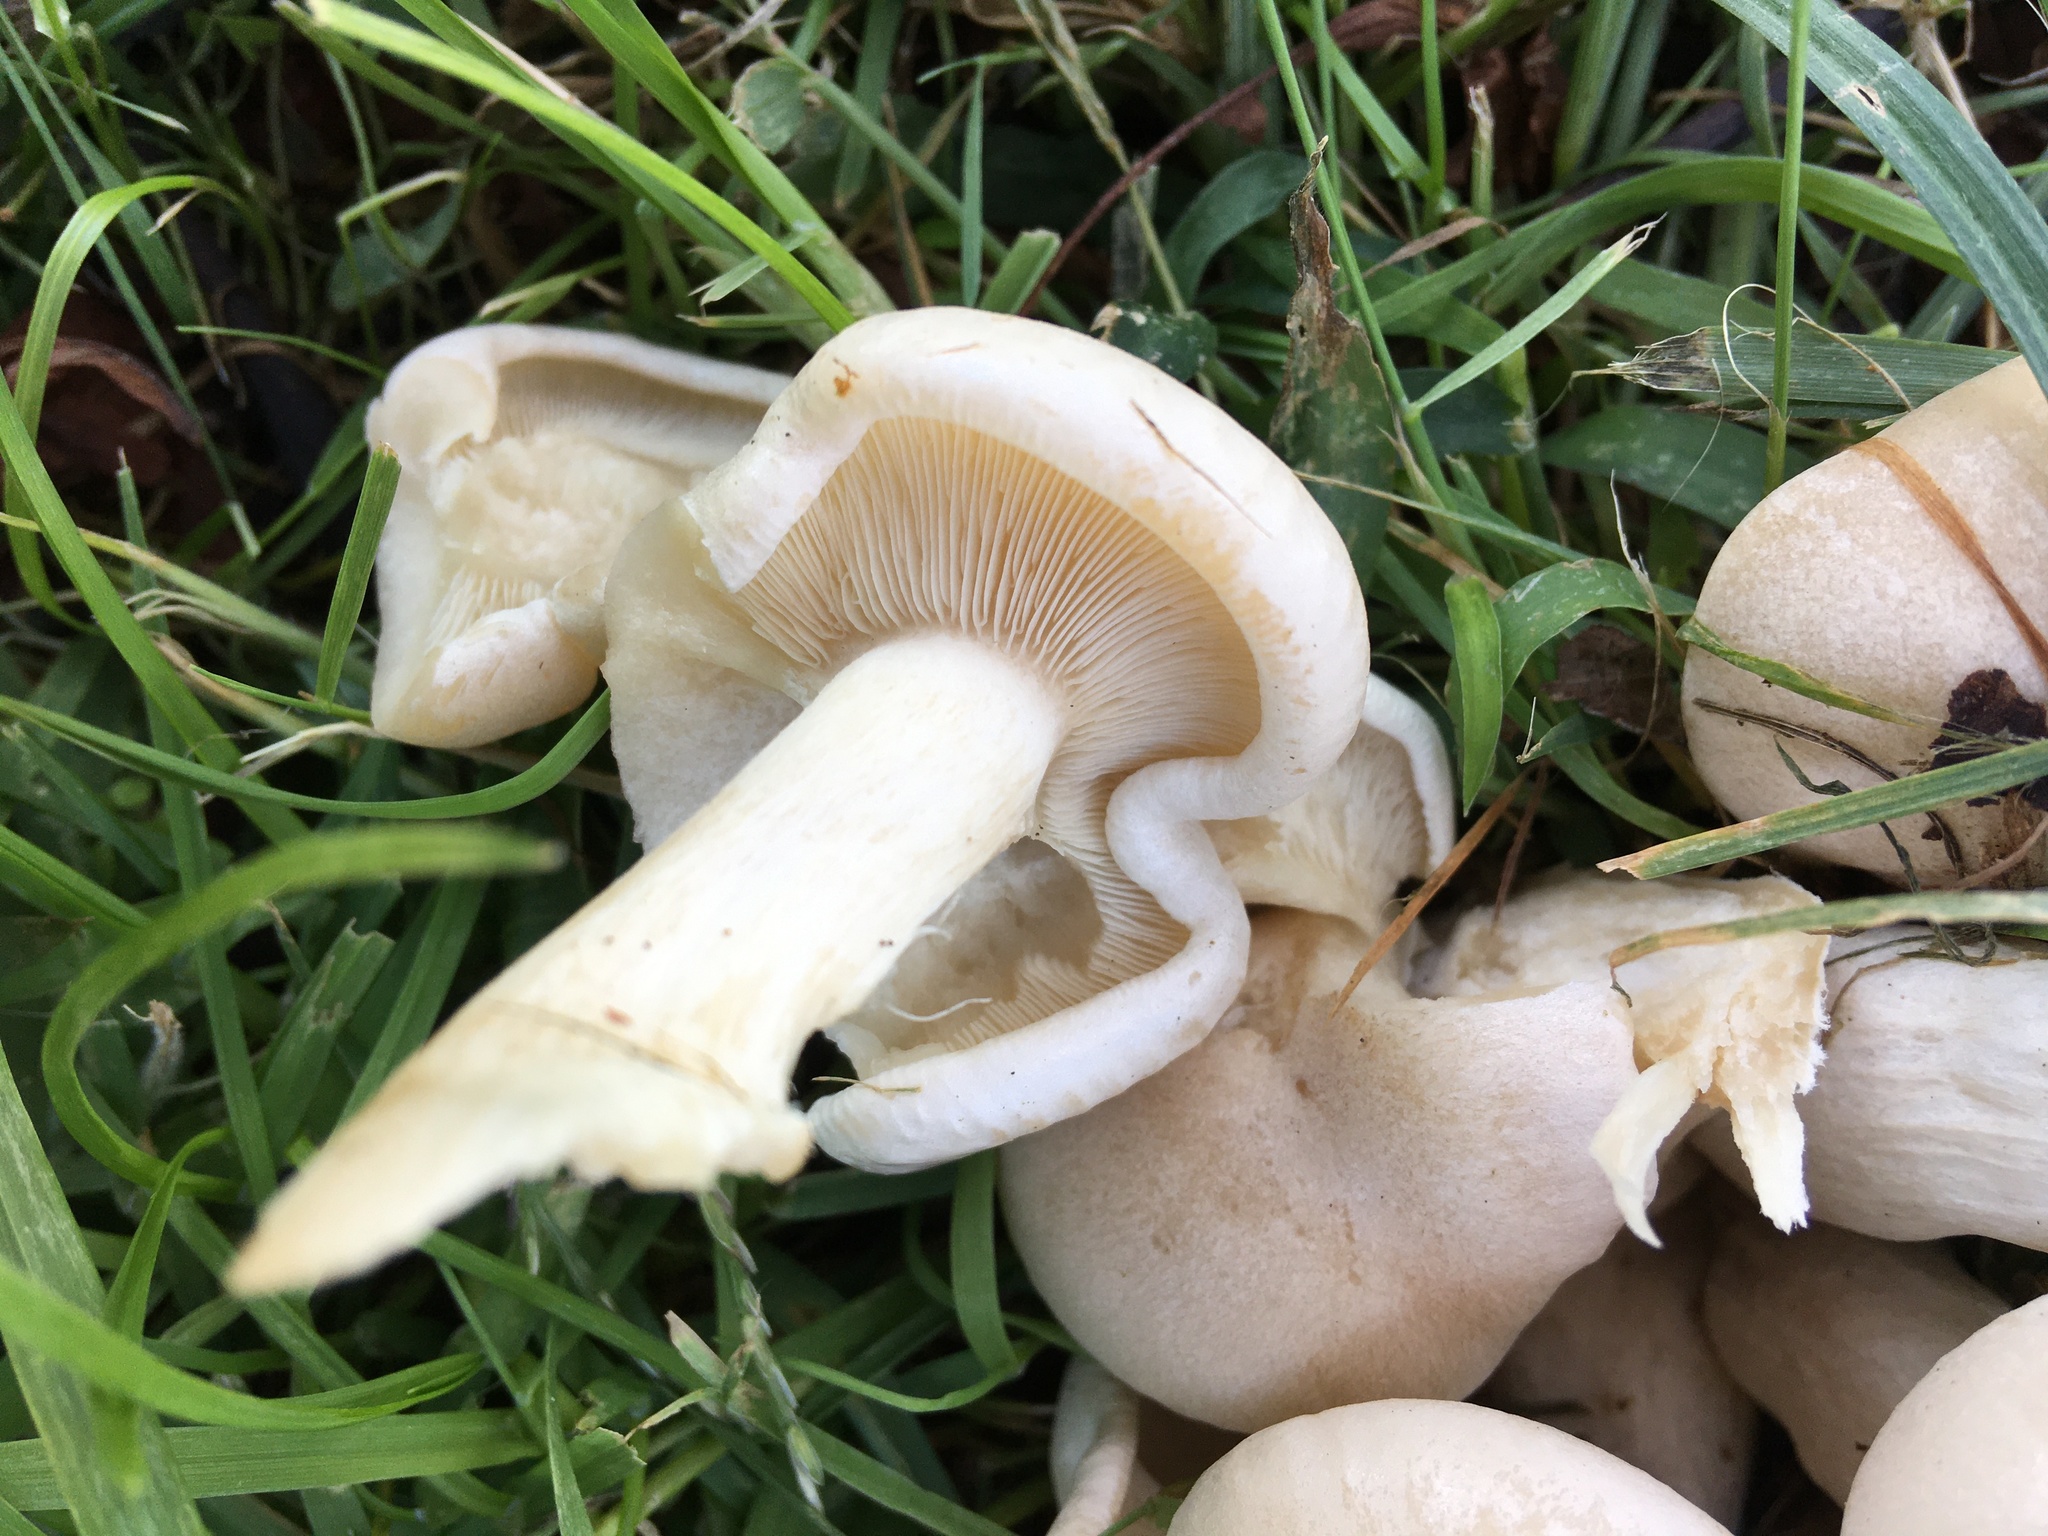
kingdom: Fungi
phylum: Basidiomycota
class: Agaricomycetes
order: Agaricales
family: Tricholomataceae
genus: Lepista
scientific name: Lepista subconnexa
